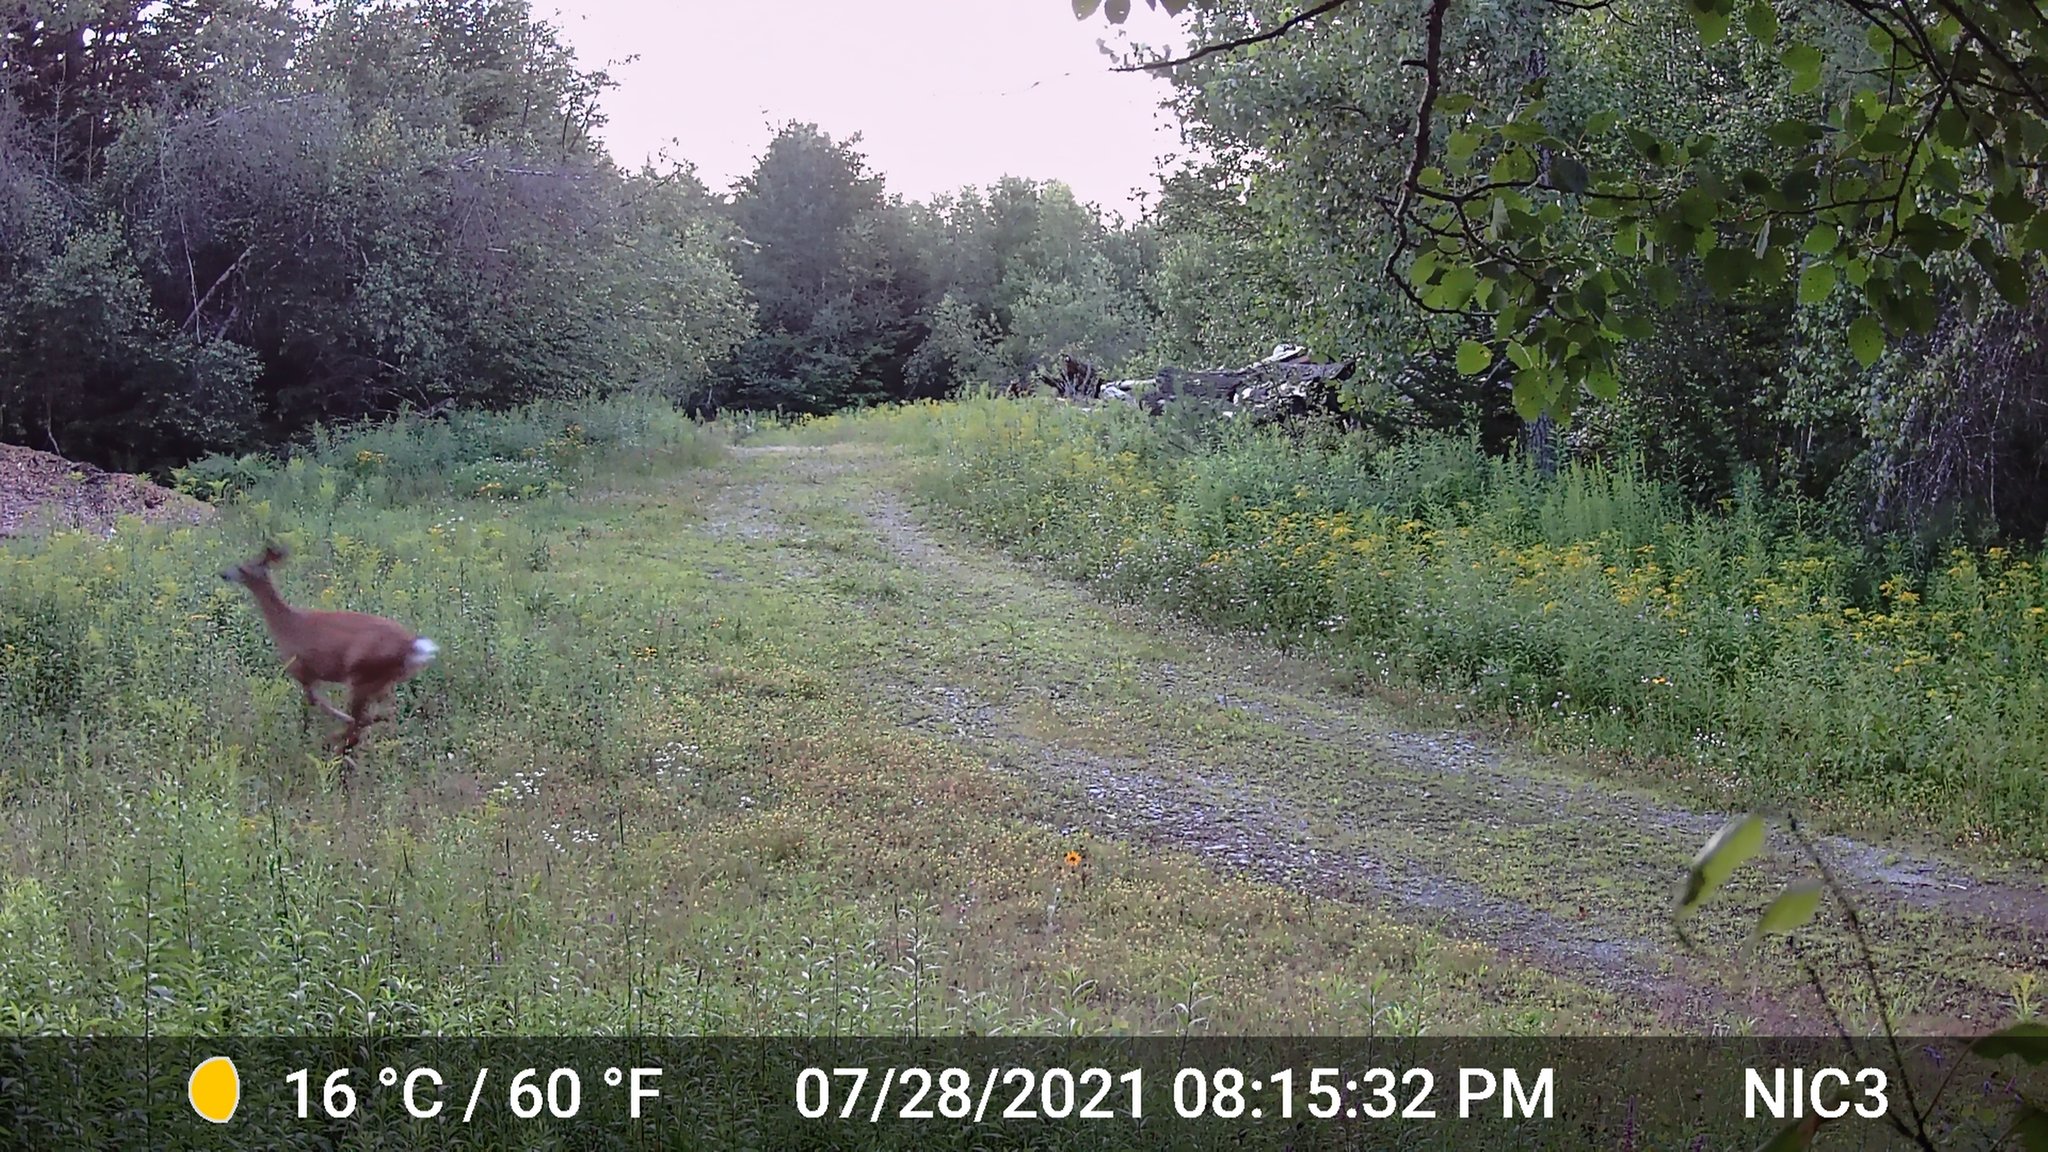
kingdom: Animalia
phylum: Chordata
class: Mammalia
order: Artiodactyla
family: Cervidae
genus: Odocoileus
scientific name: Odocoileus virginianus
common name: White-tailed deer
